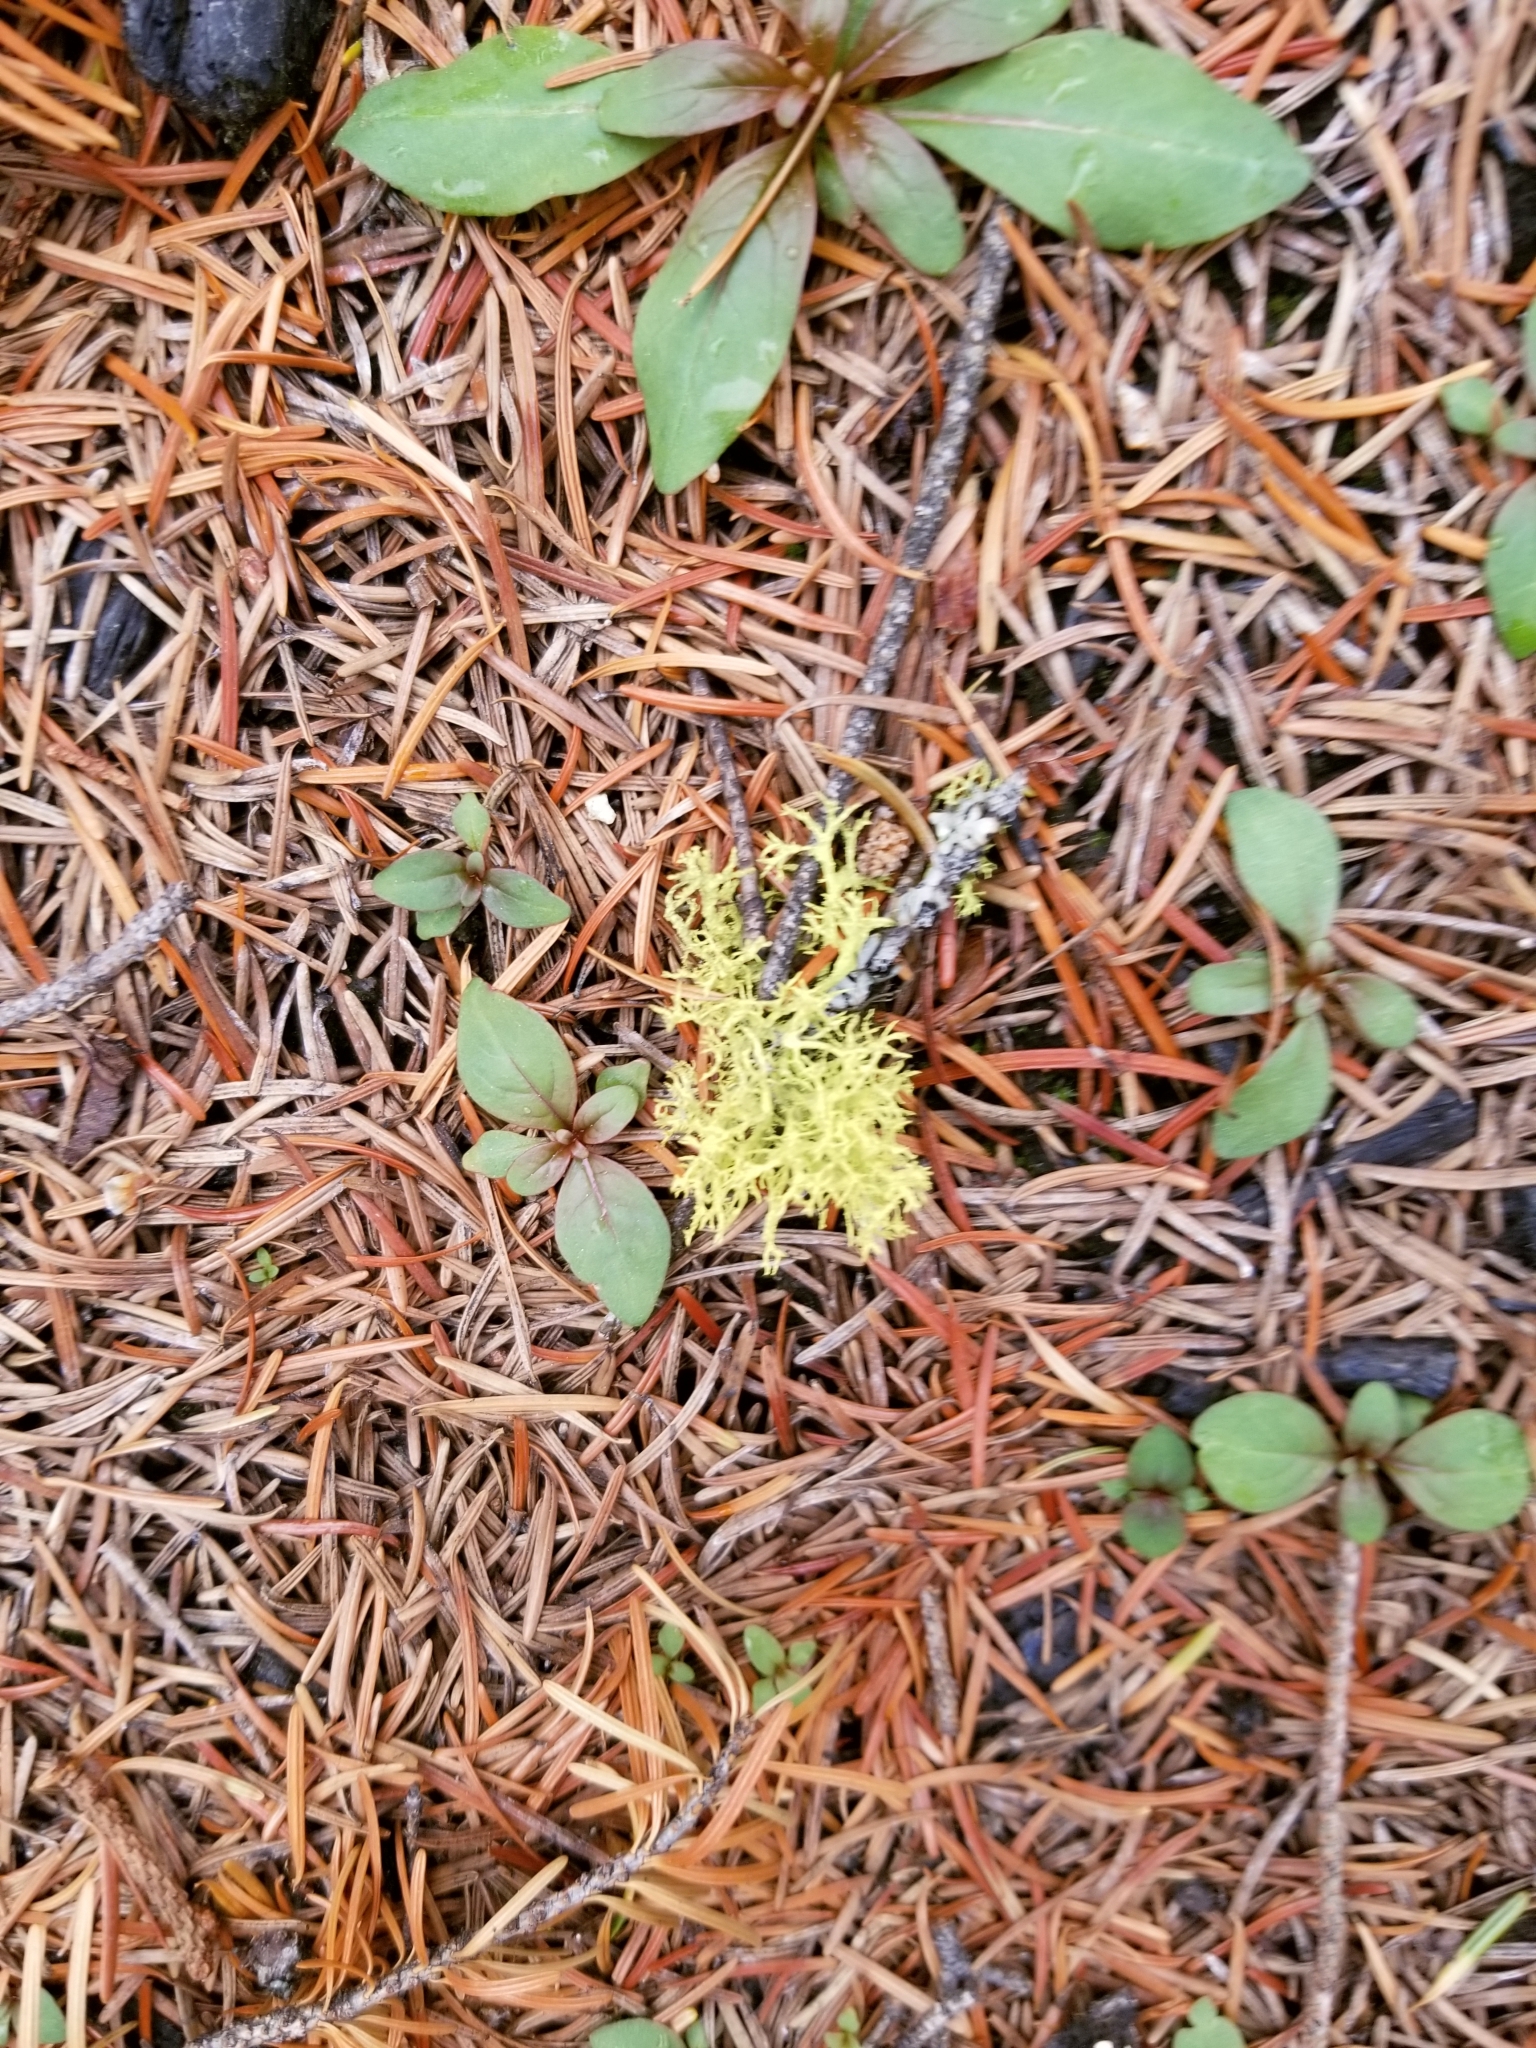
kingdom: Fungi
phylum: Ascomycota
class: Lecanoromycetes
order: Lecanorales
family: Parmeliaceae
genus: Letharia
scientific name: Letharia vulpina
